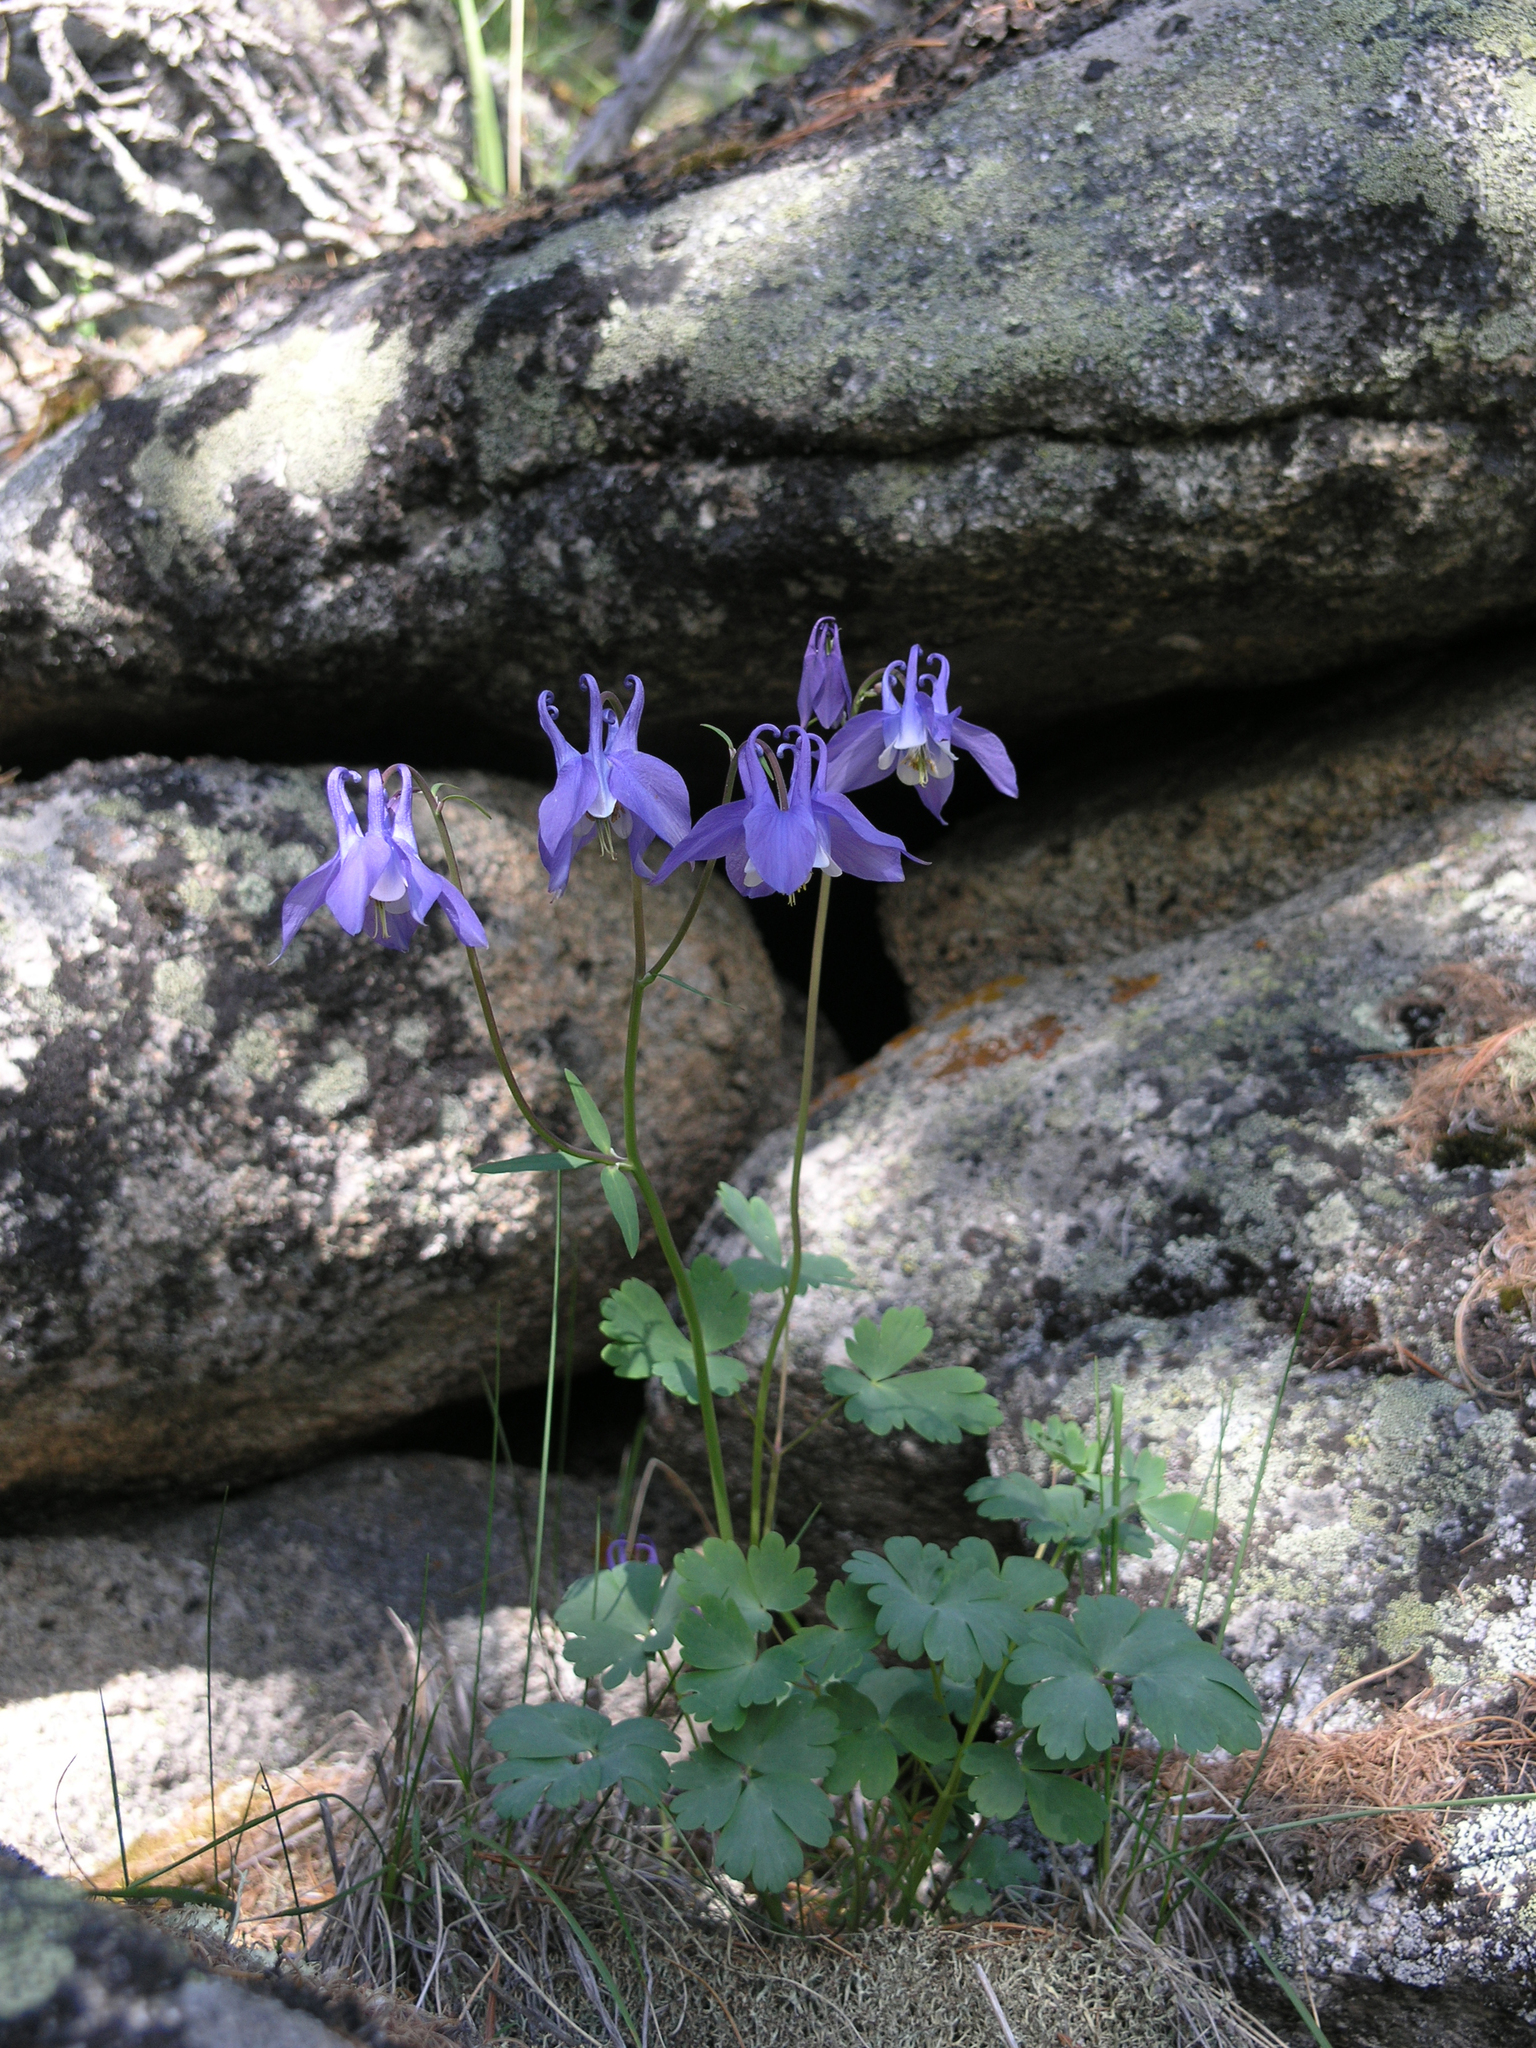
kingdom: Plantae
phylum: Tracheophyta
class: Magnoliopsida
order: Ranunculales
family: Ranunculaceae
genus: Aquilegia
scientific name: Aquilegia sibirica
